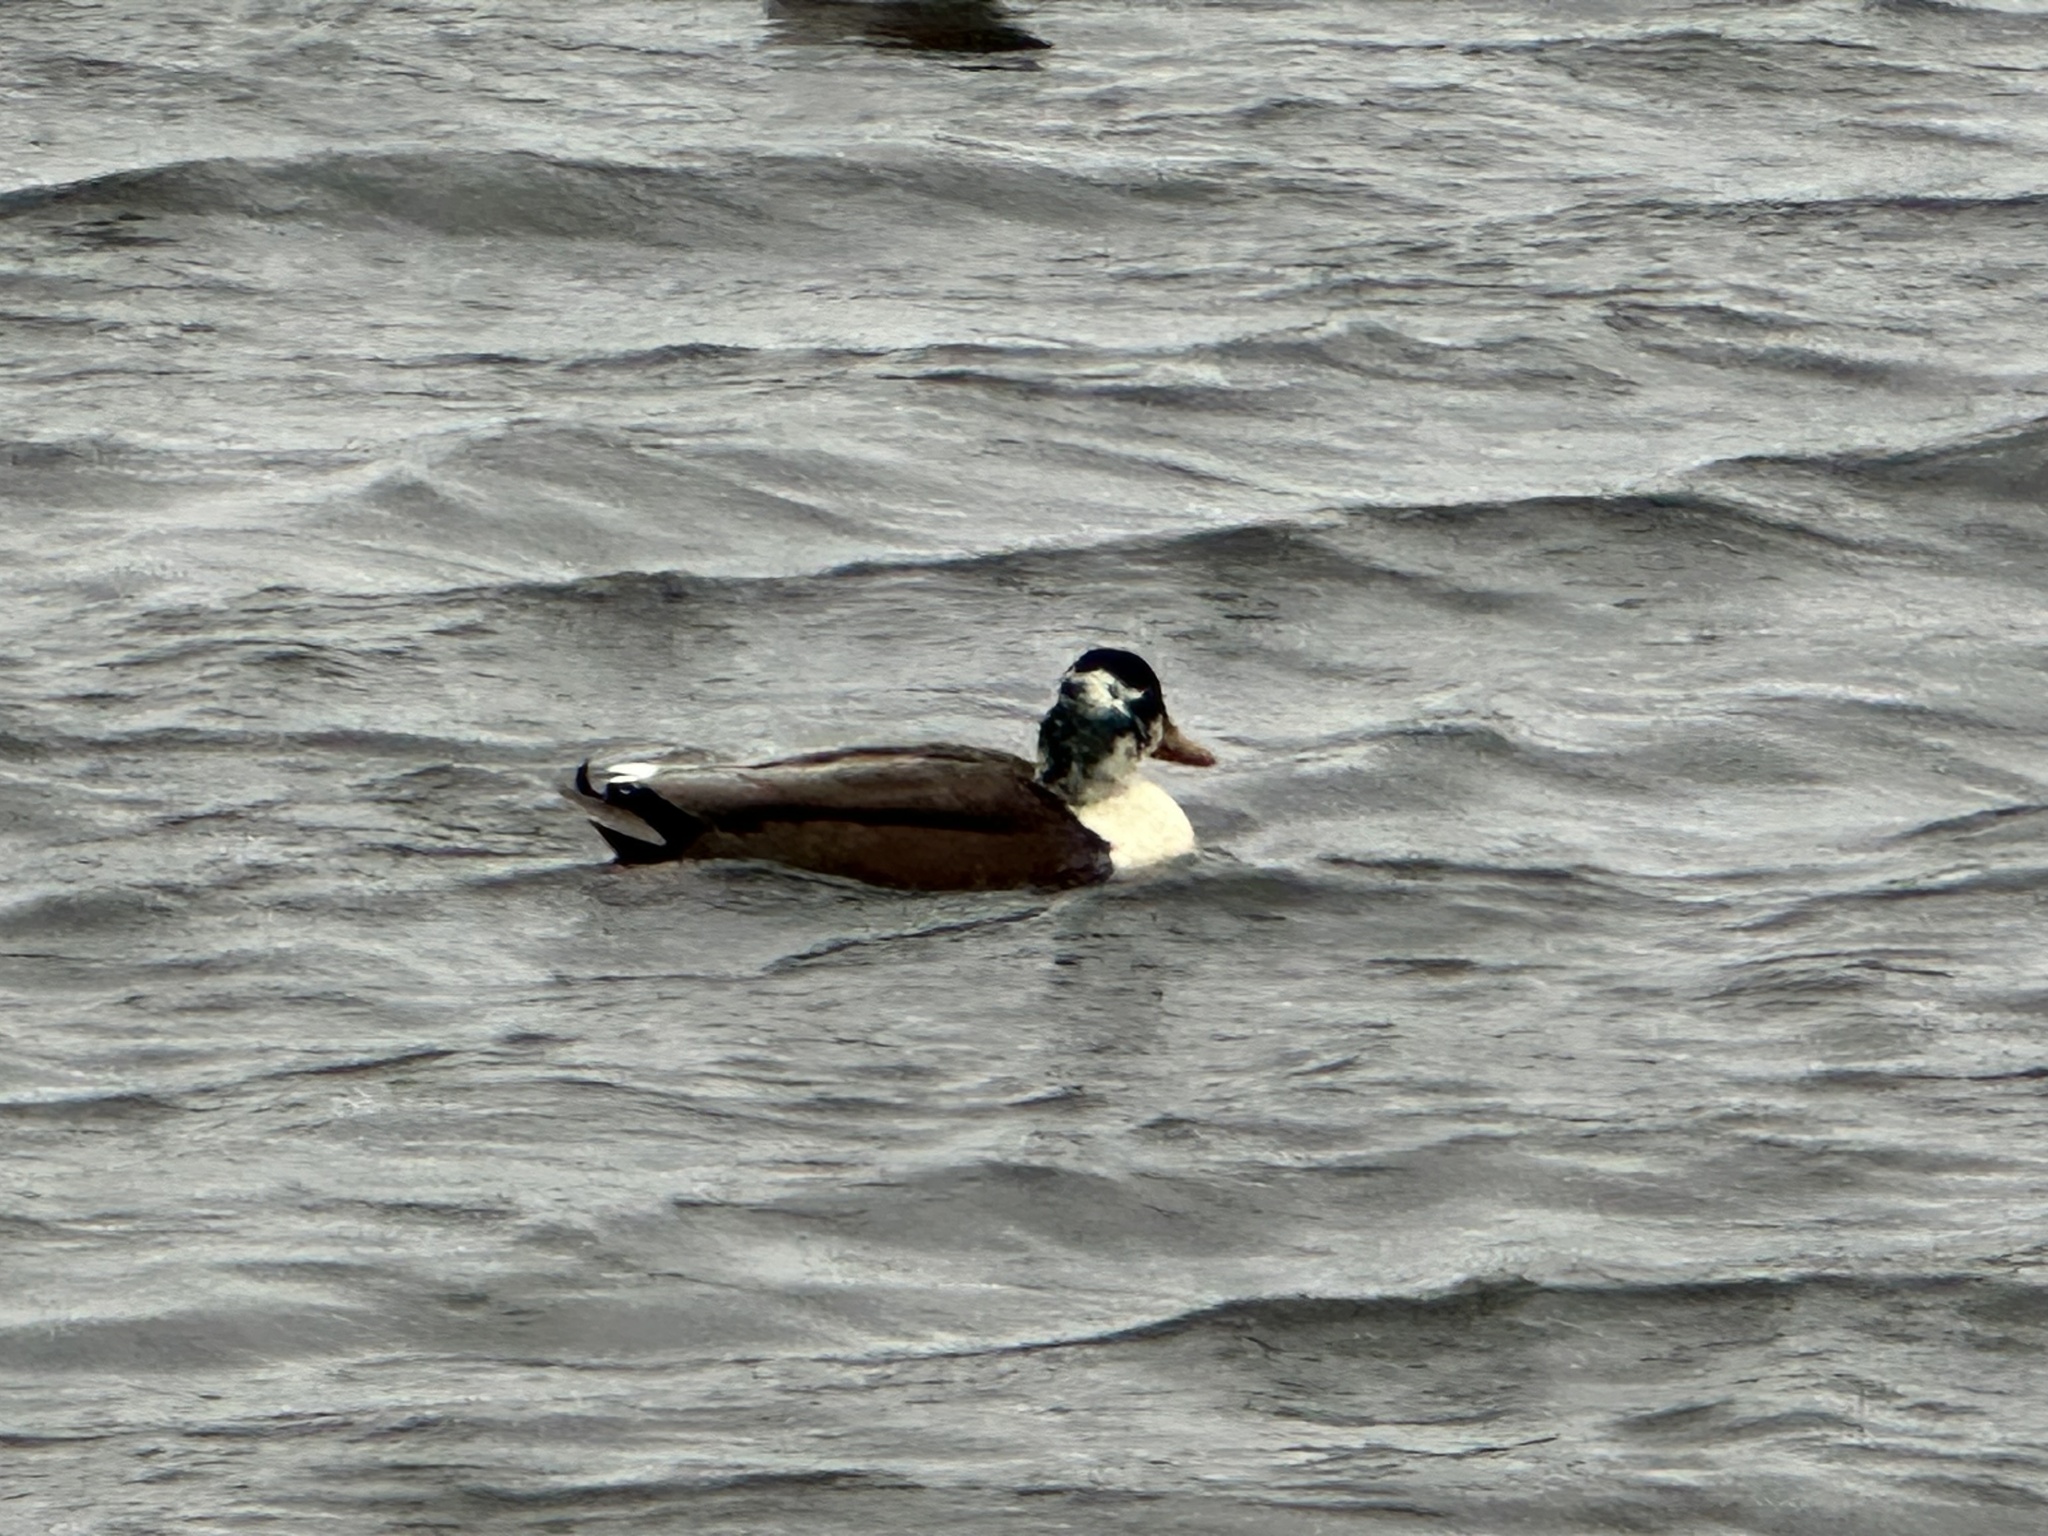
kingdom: Animalia
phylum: Chordata
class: Aves
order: Anseriformes
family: Anatidae
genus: Anas
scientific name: Anas platyrhynchos
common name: Mallard
